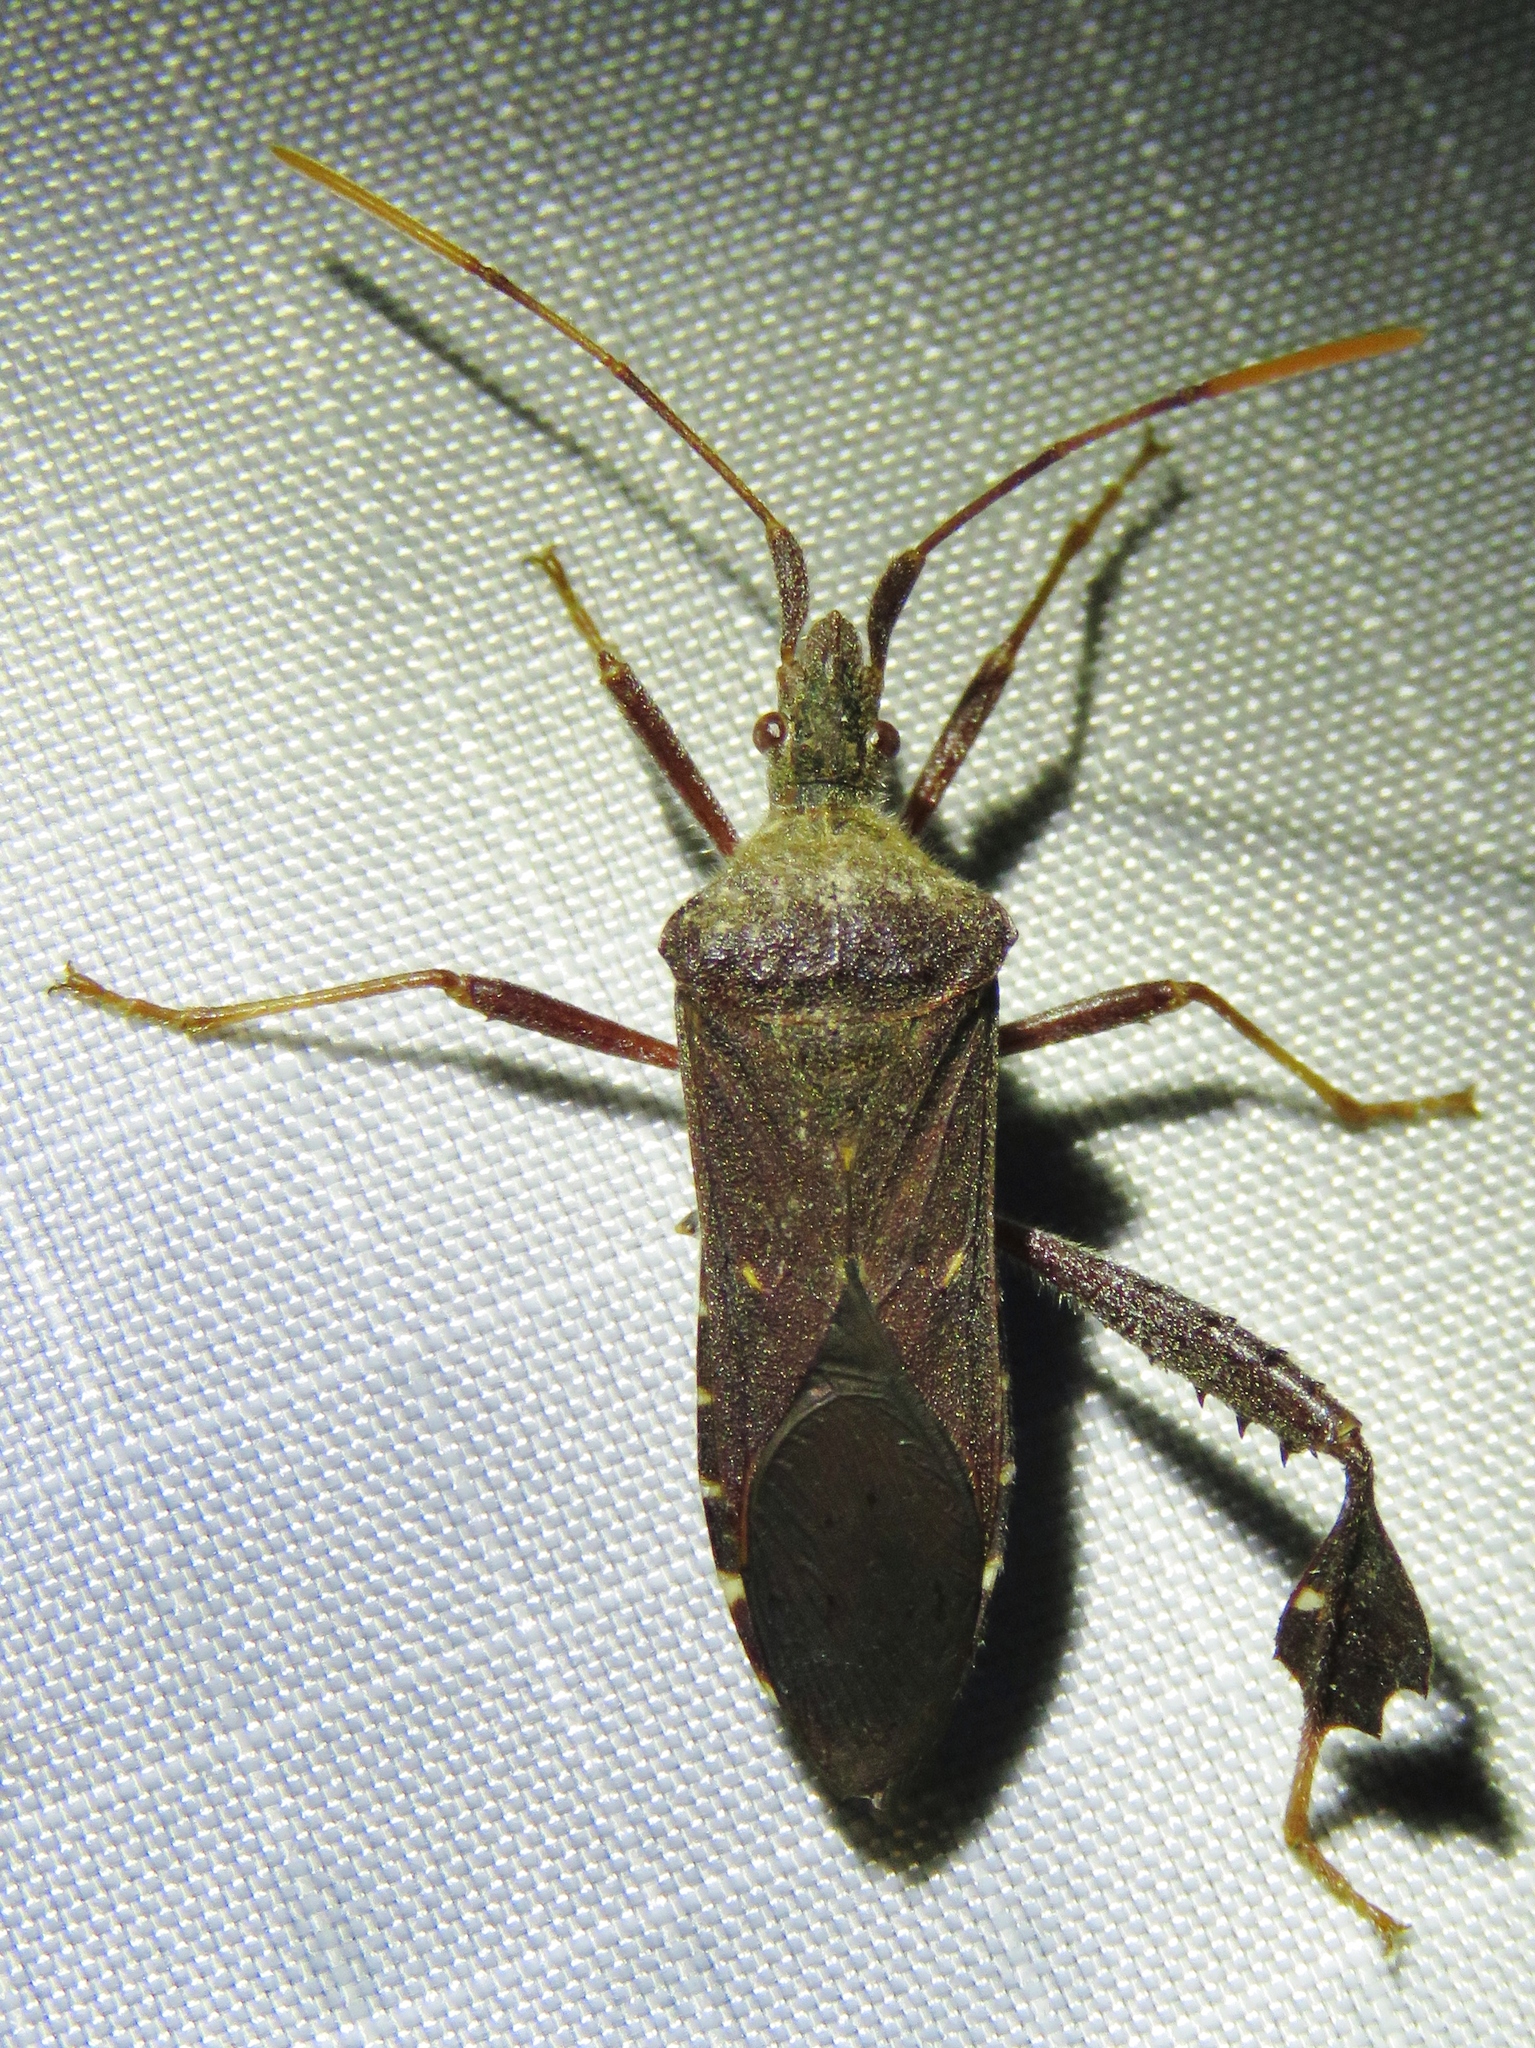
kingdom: Animalia
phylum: Arthropoda
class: Insecta
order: Hemiptera
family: Coreidae
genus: Leptoglossus
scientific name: Leptoglossus oppositus
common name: Northern leaf-footed bug
